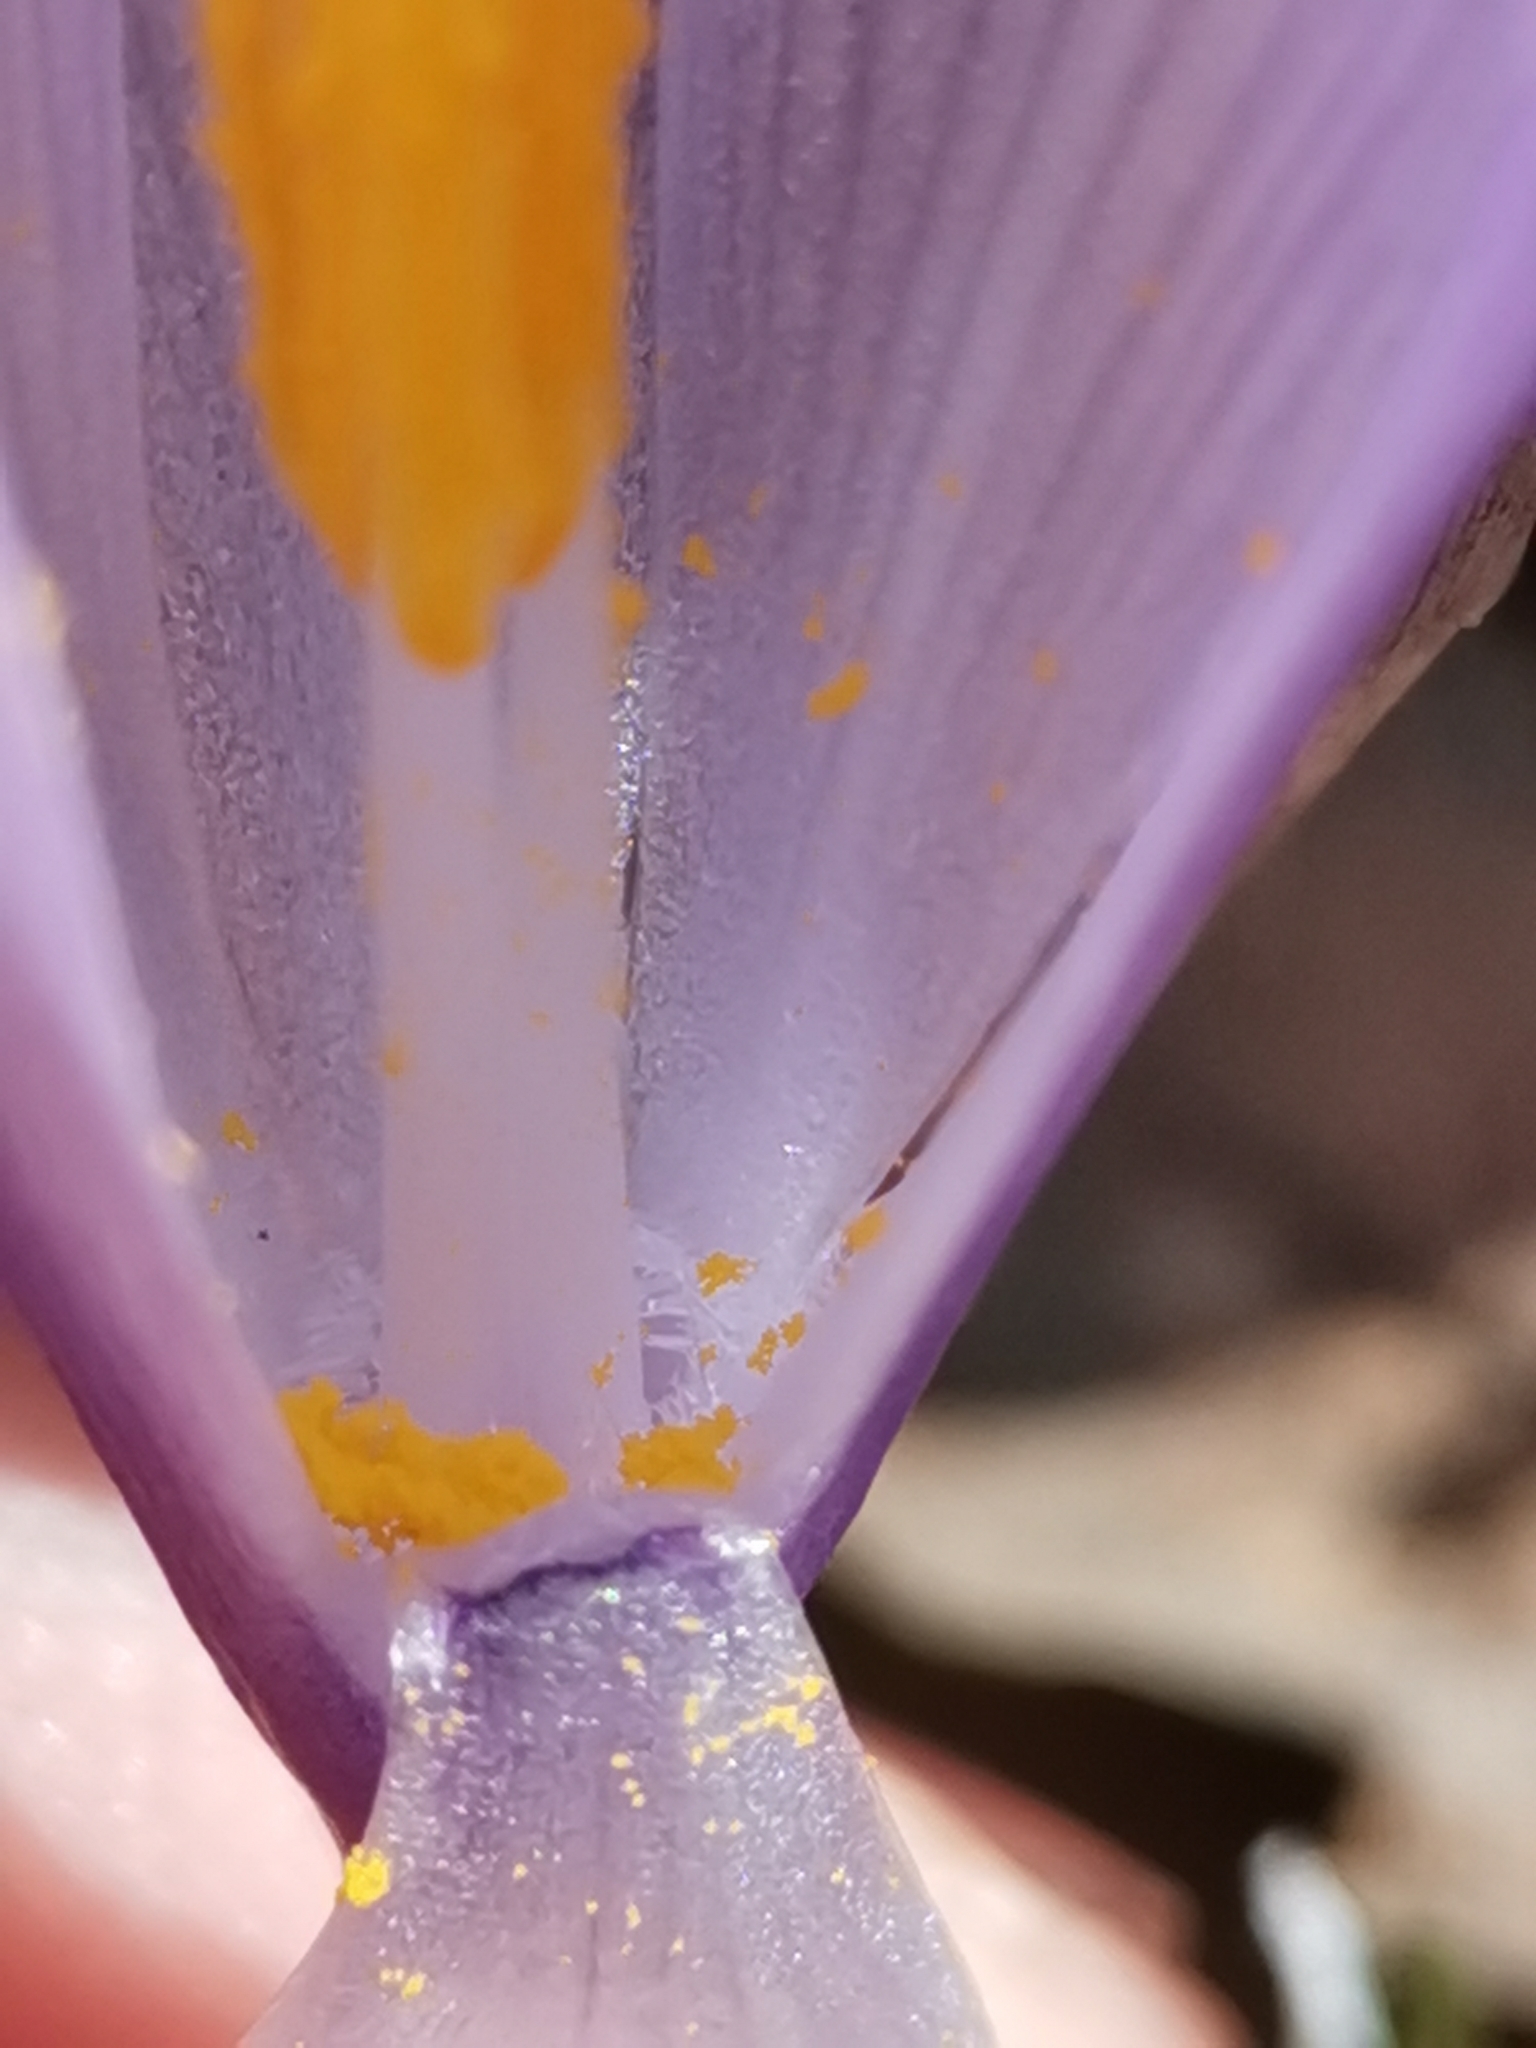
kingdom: Plantae
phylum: Tracheophyta
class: Liliopsida
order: Asparagales
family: Iridaceae
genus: Crocus
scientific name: Crocus neapolitanus
